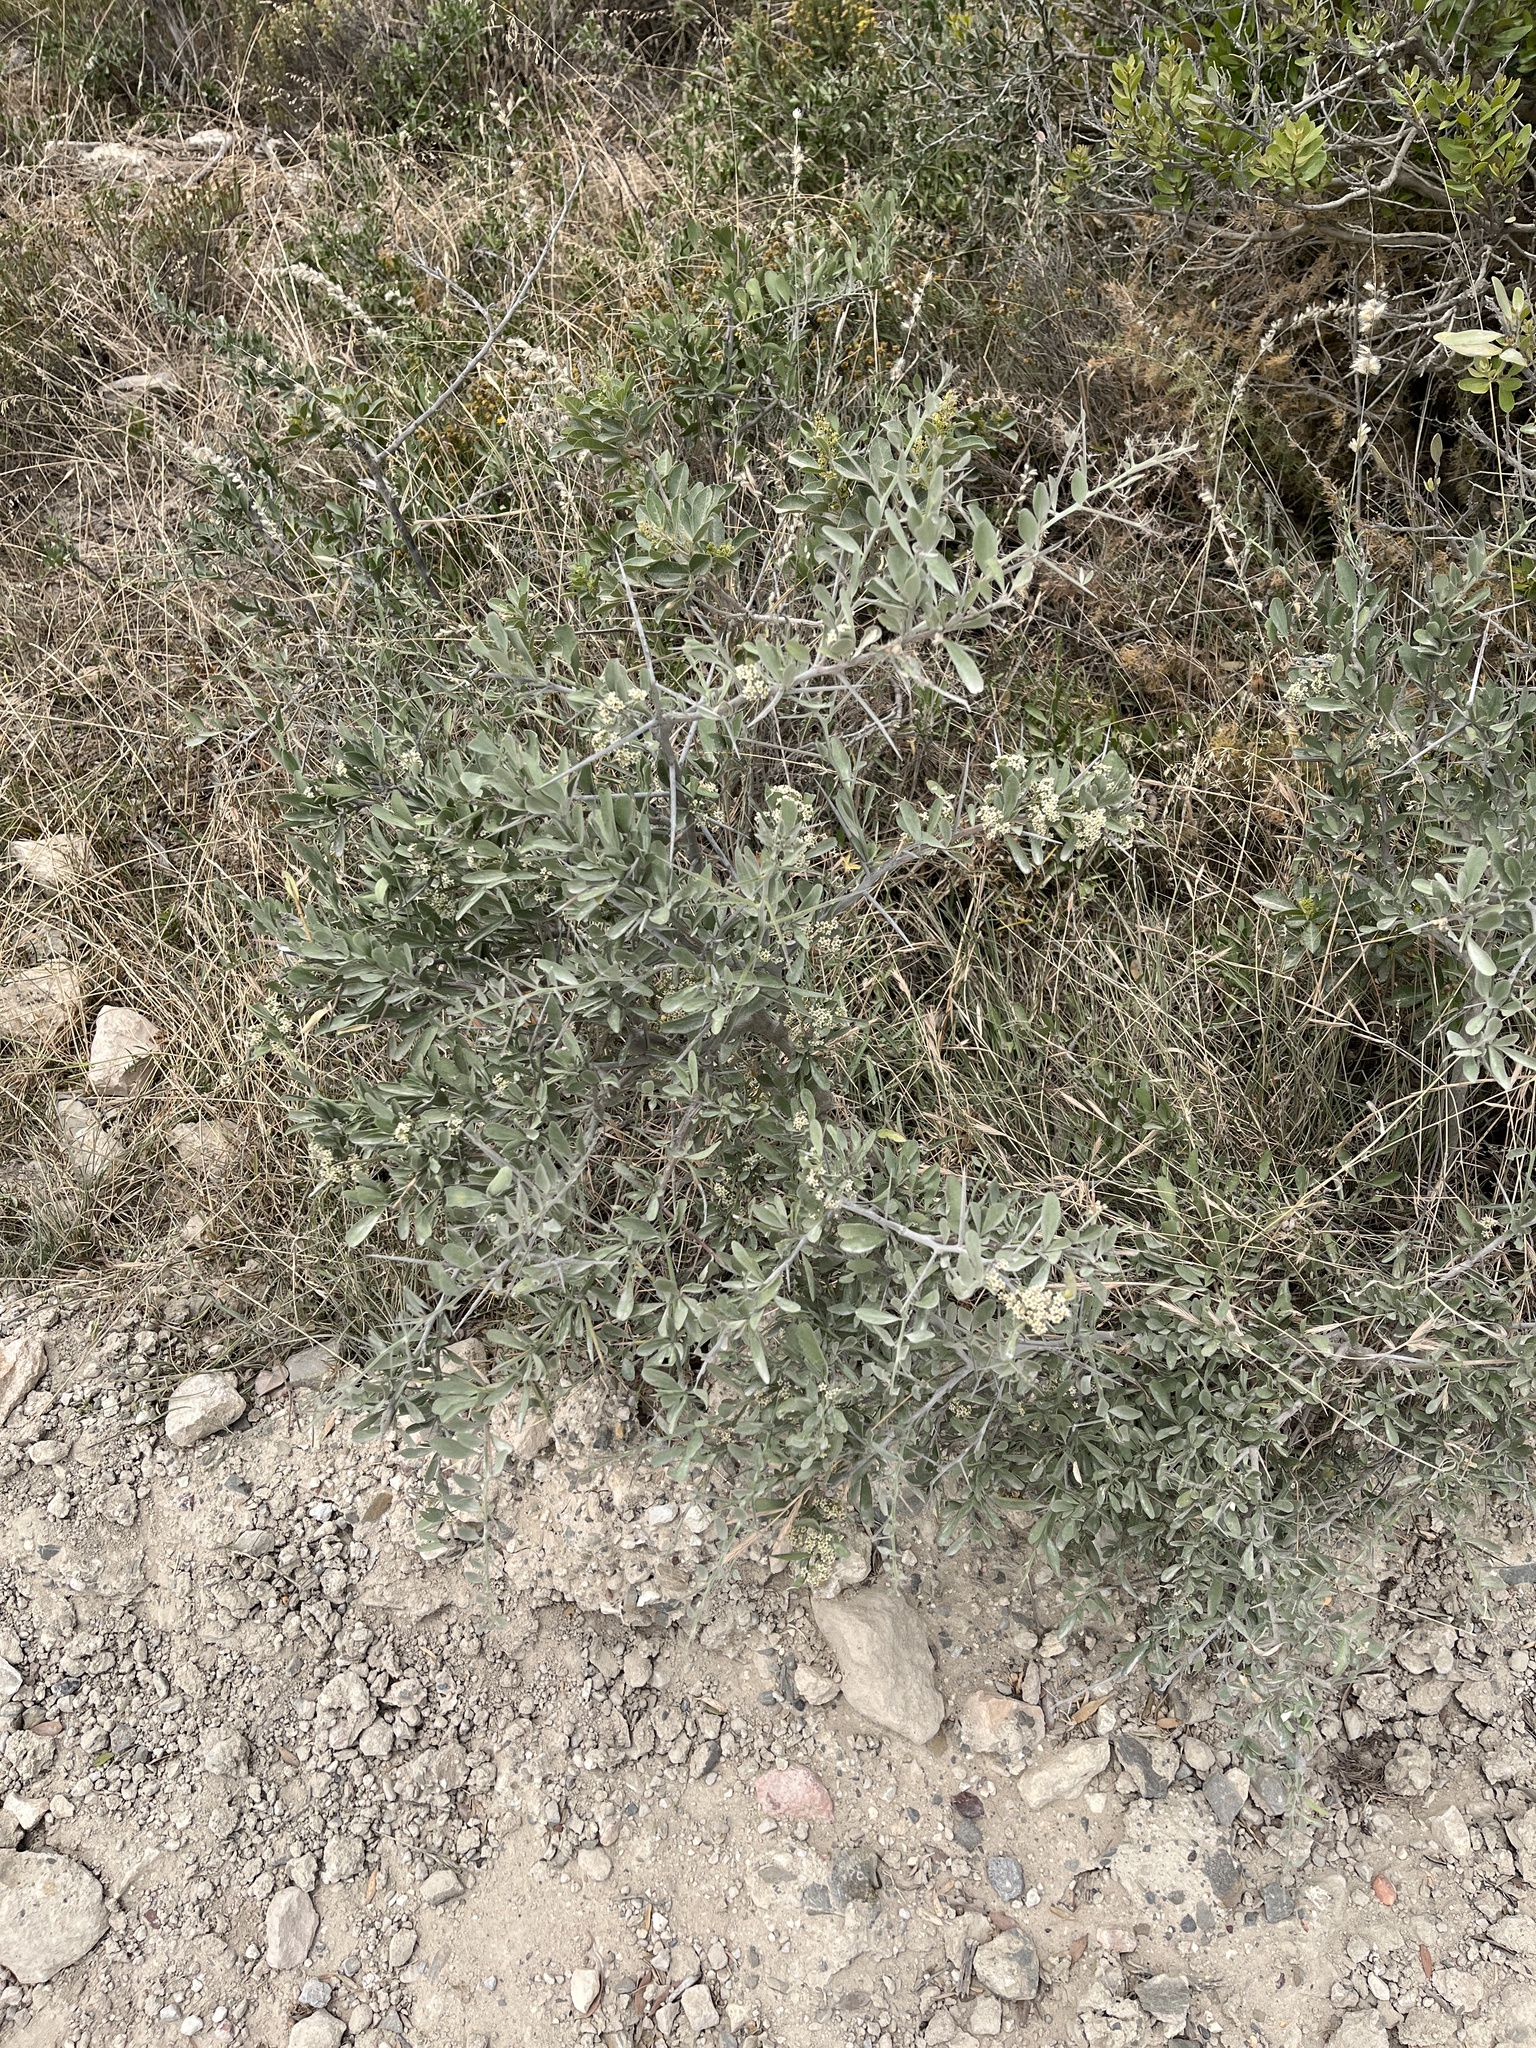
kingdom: Plantae
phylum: Tracheophyta
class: Magnoliopsida
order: Celastrales
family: Celastraceae
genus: Gymnosporia
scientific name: Gymnosporia buxifolia
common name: Common spike-thorn
